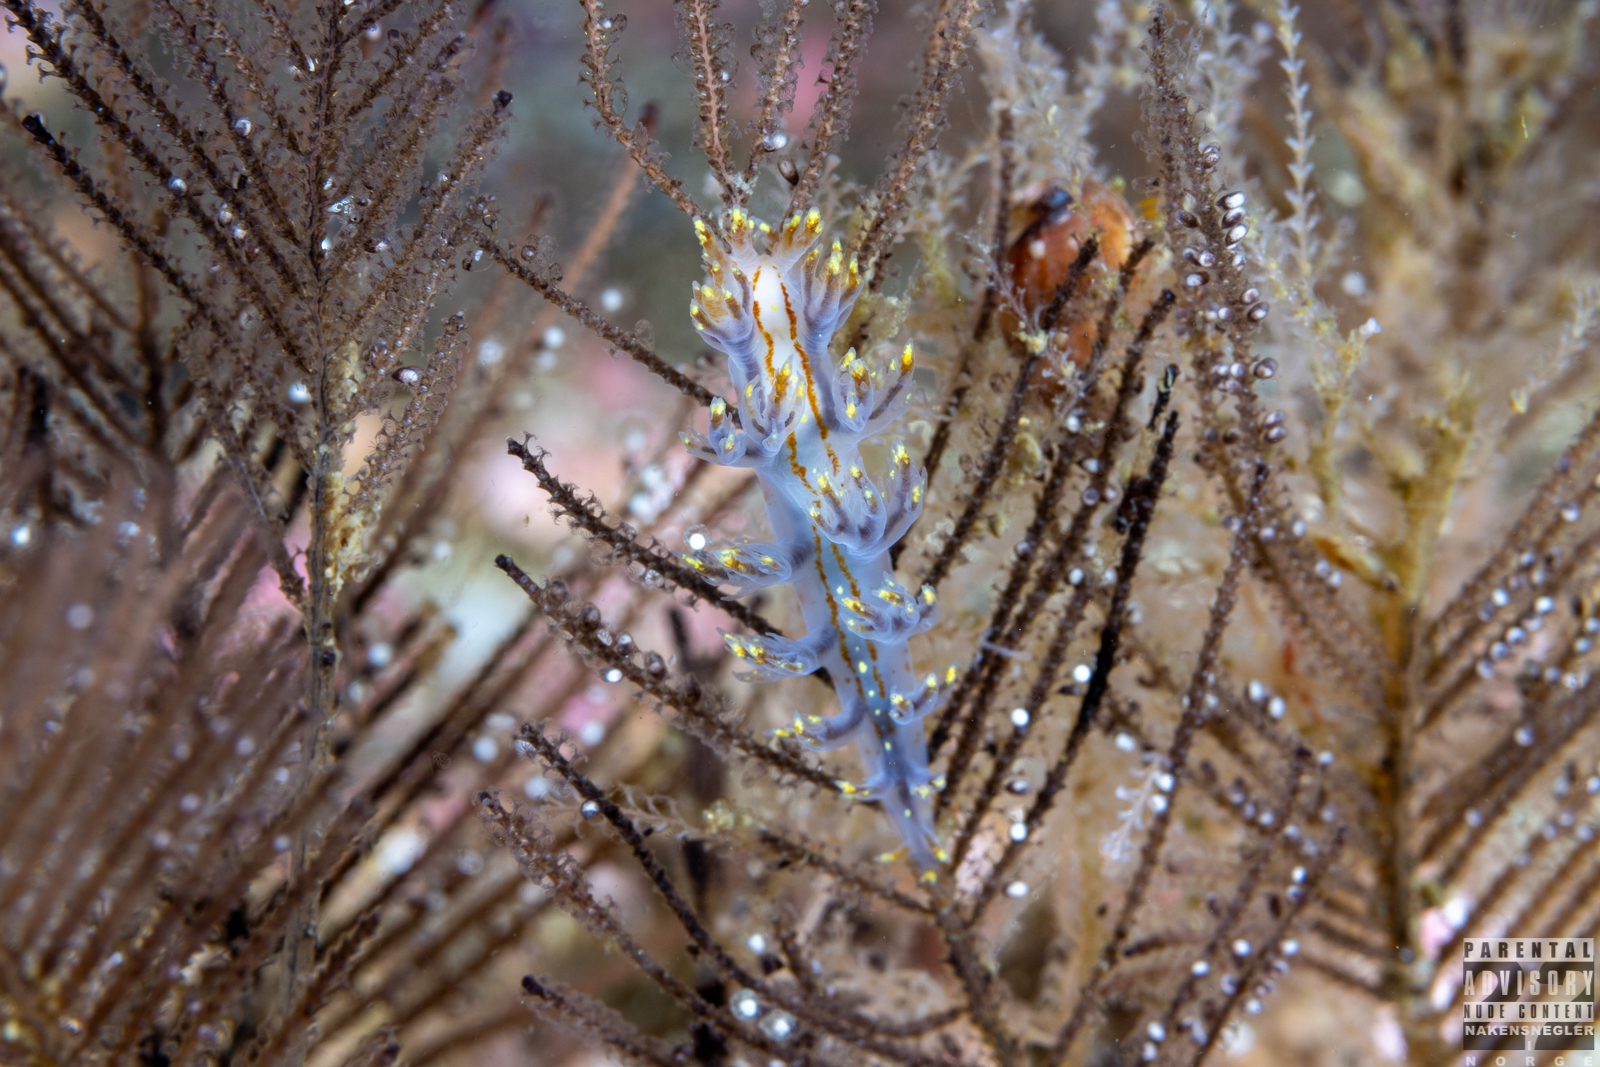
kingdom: Animalia
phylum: Mollusca
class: Gastropoda
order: Nudibranchia
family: Dendronotidae
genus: Dendronotus
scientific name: Dendronotus yrjargul
